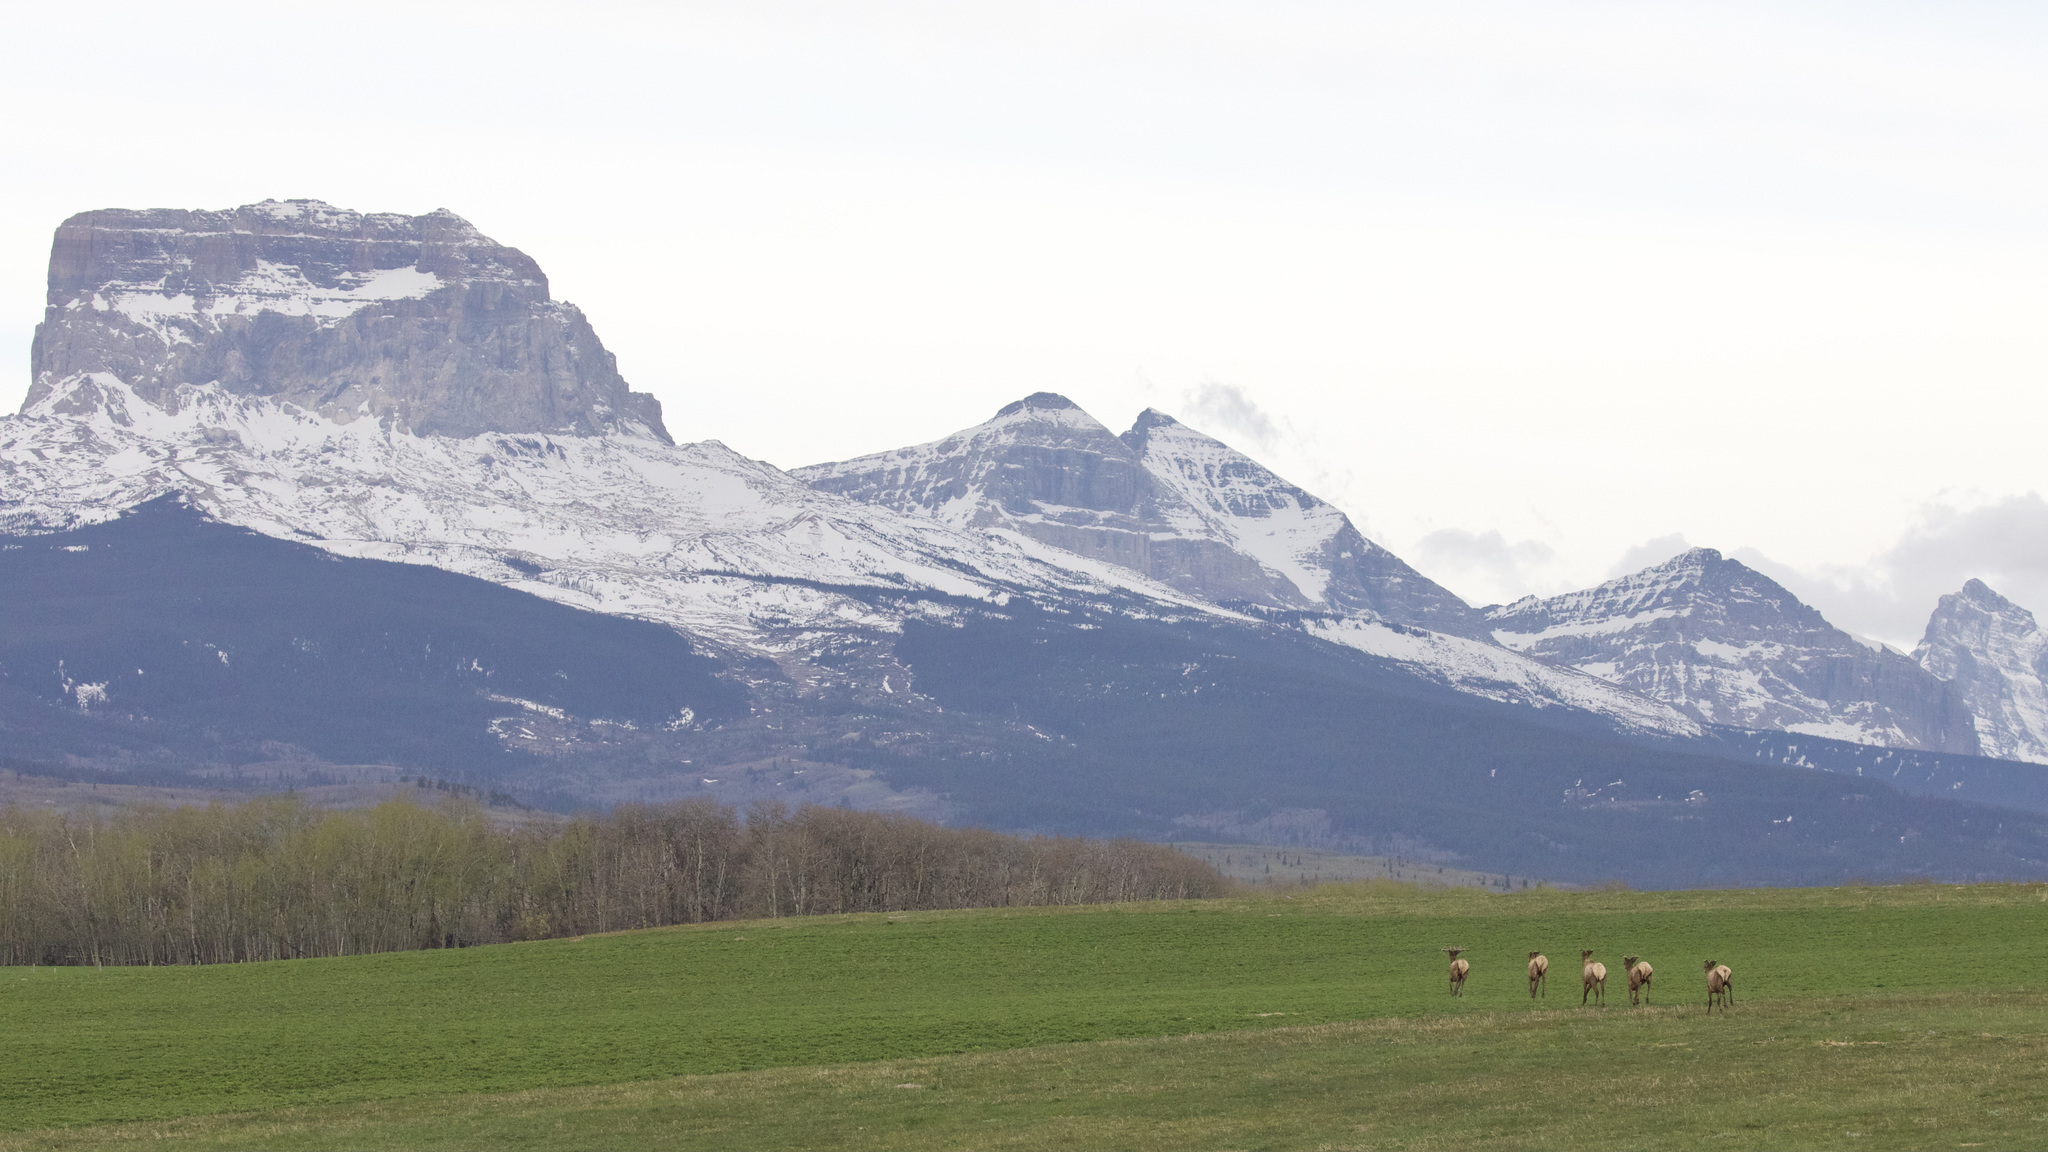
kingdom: Animalia
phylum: Chordata
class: Mammalia
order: Artiodactyla
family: Cervidae
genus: Cervus
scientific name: Cervus elaphus
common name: Red deer
